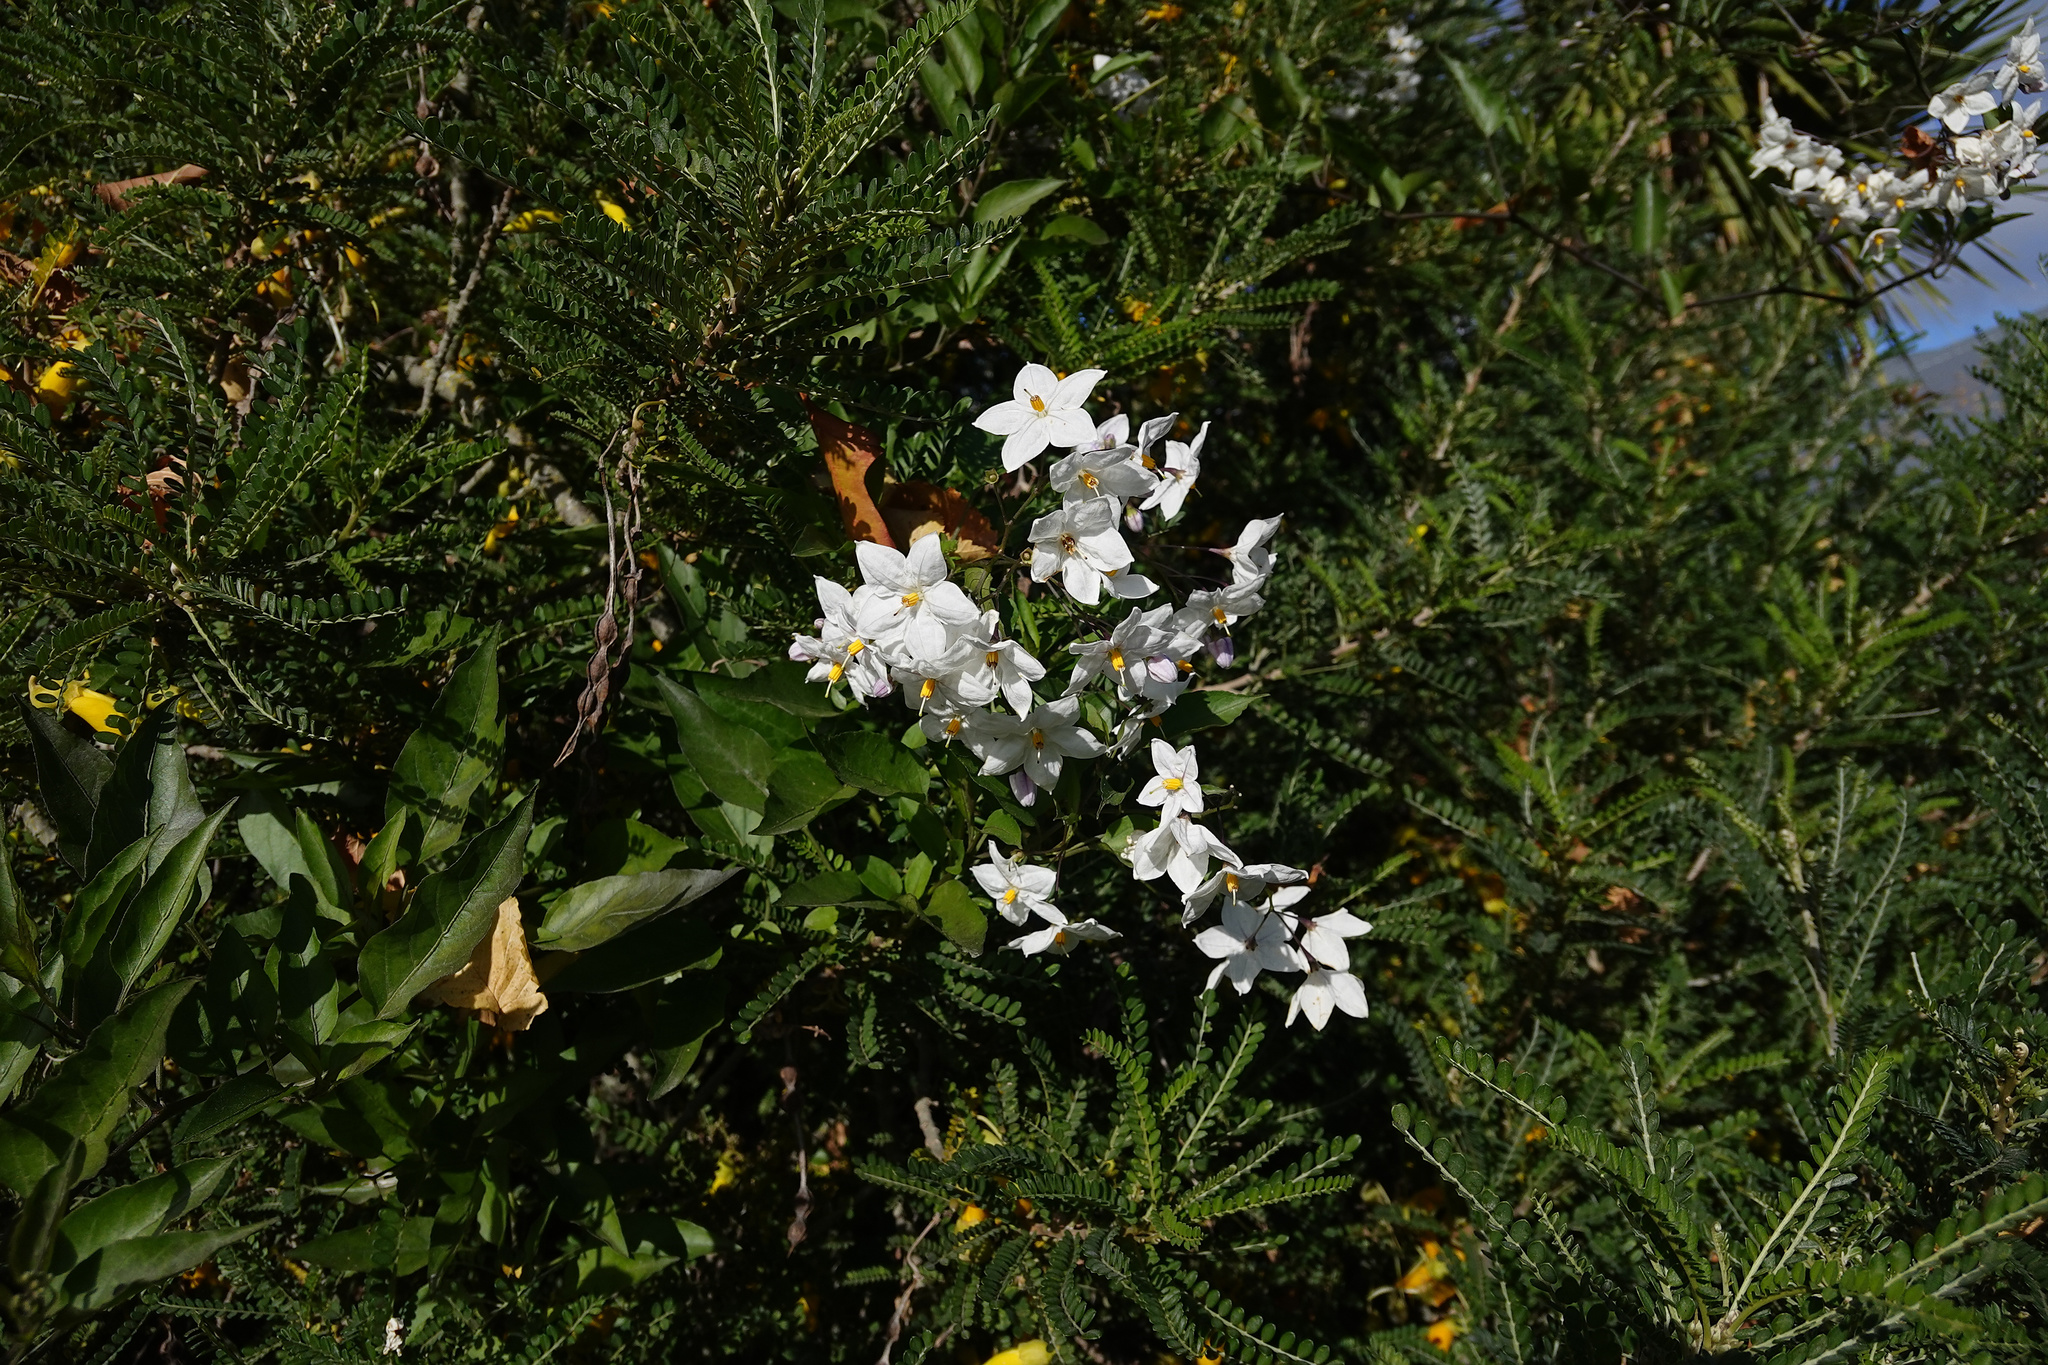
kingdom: Plantae
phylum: Tracheophyta
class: Magnoliopsida
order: Solanales
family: Solanaceae
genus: Solanum
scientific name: Solanum laxum
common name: Nightshade
